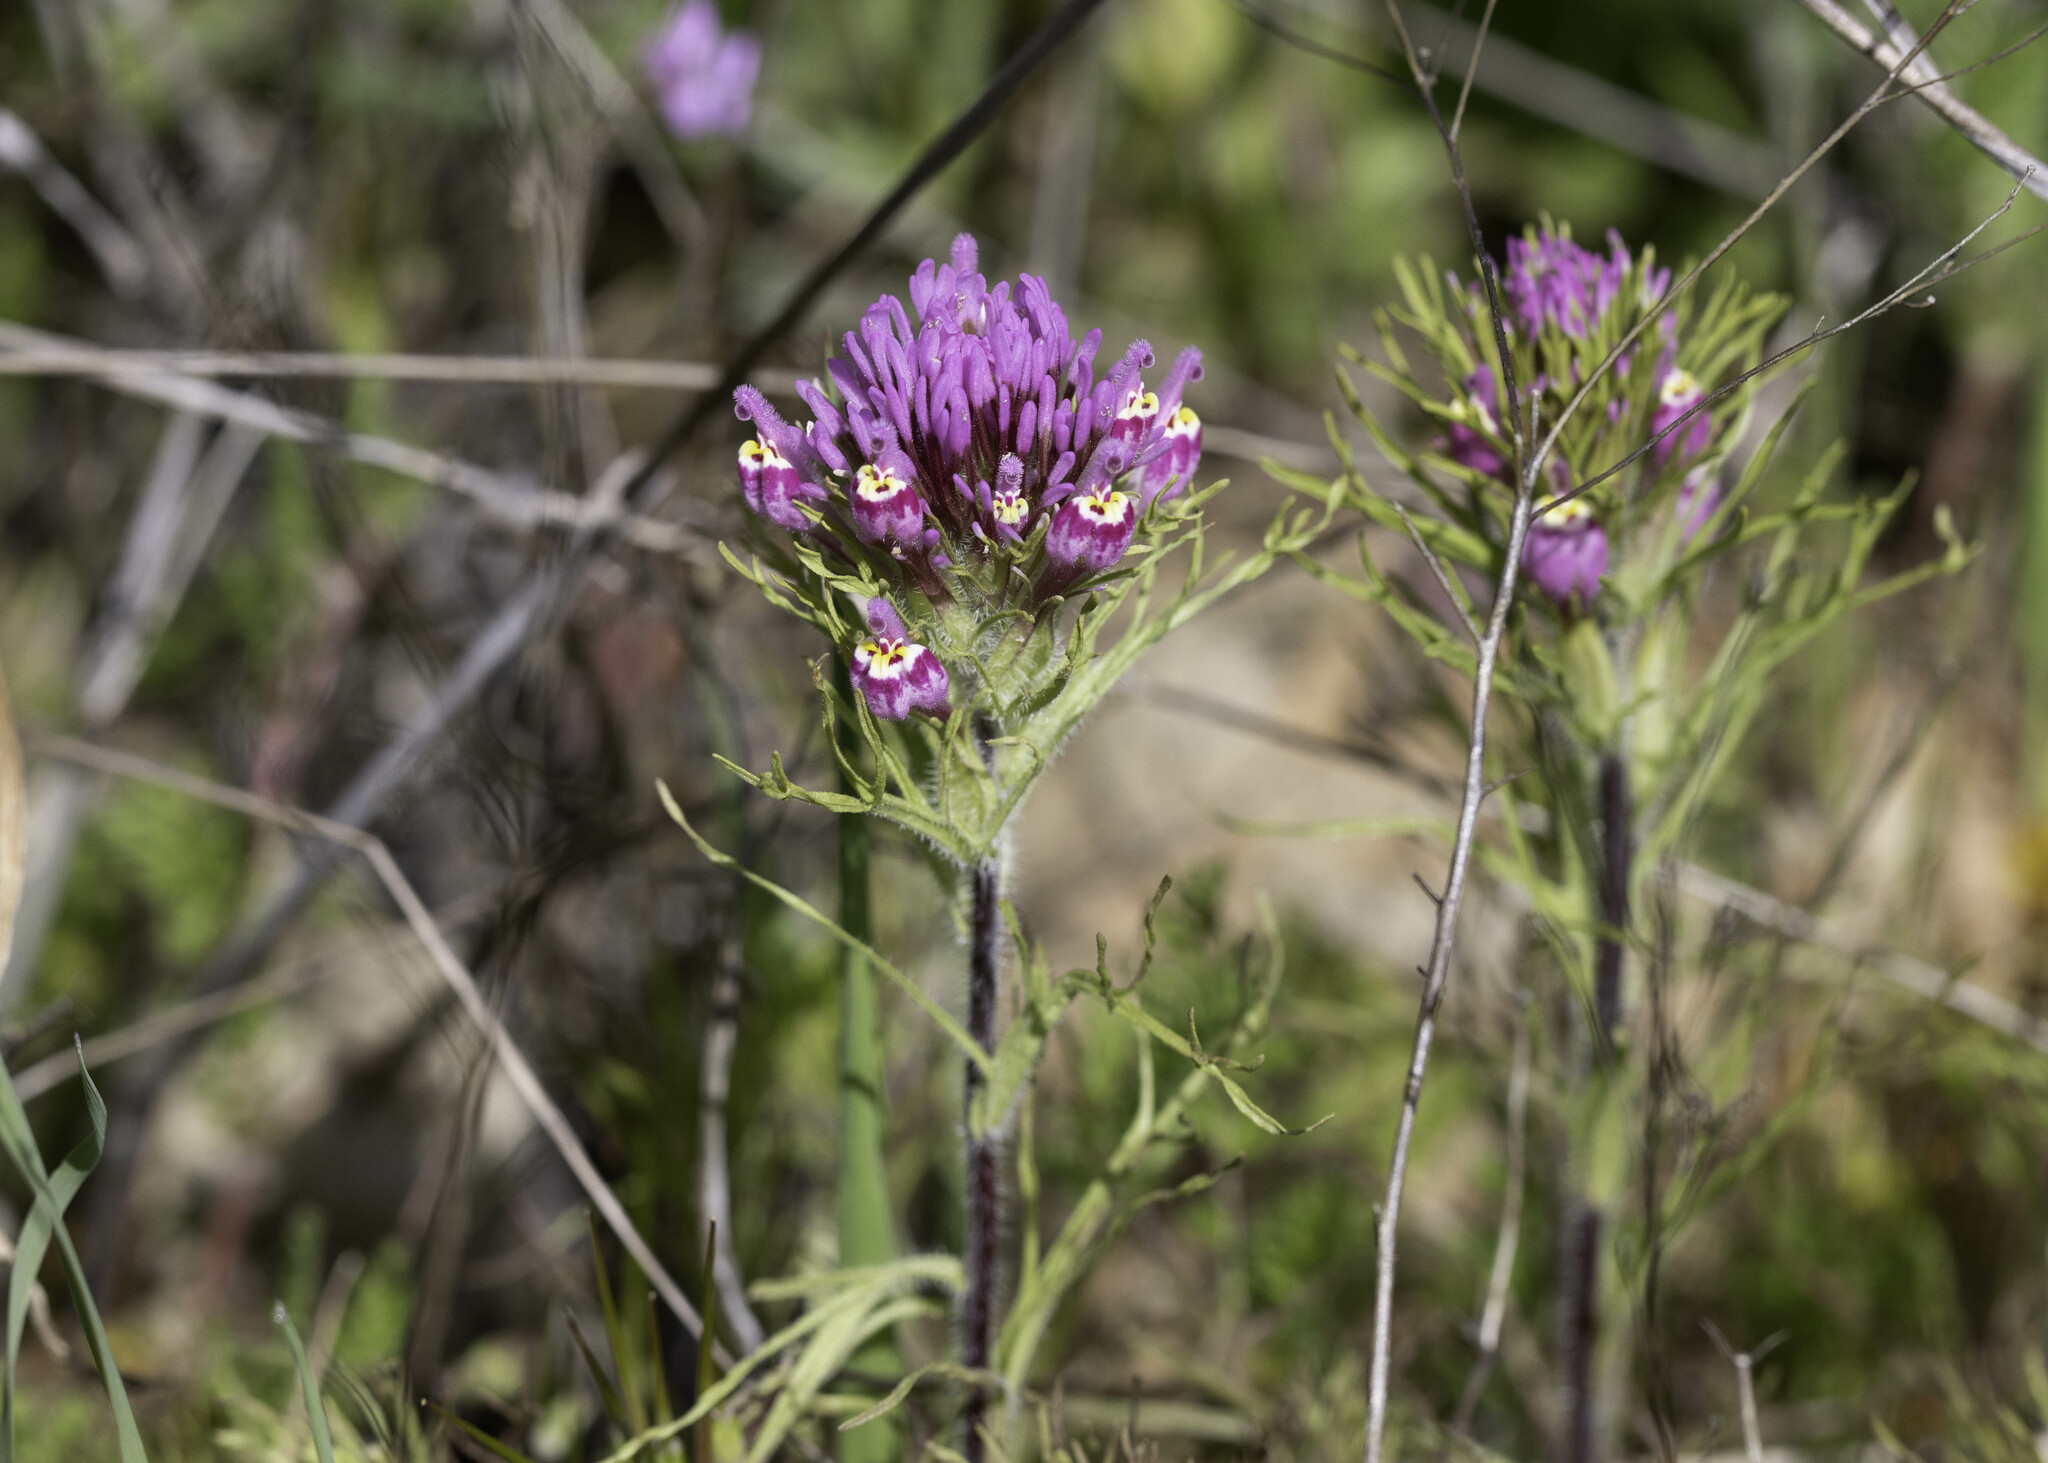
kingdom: Plantae
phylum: Tracheophyta
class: Magnoliopsida
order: Lamiales
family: Orobanchaceae
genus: Castilleja
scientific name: Castilleja exserta
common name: Purple owl-clover
